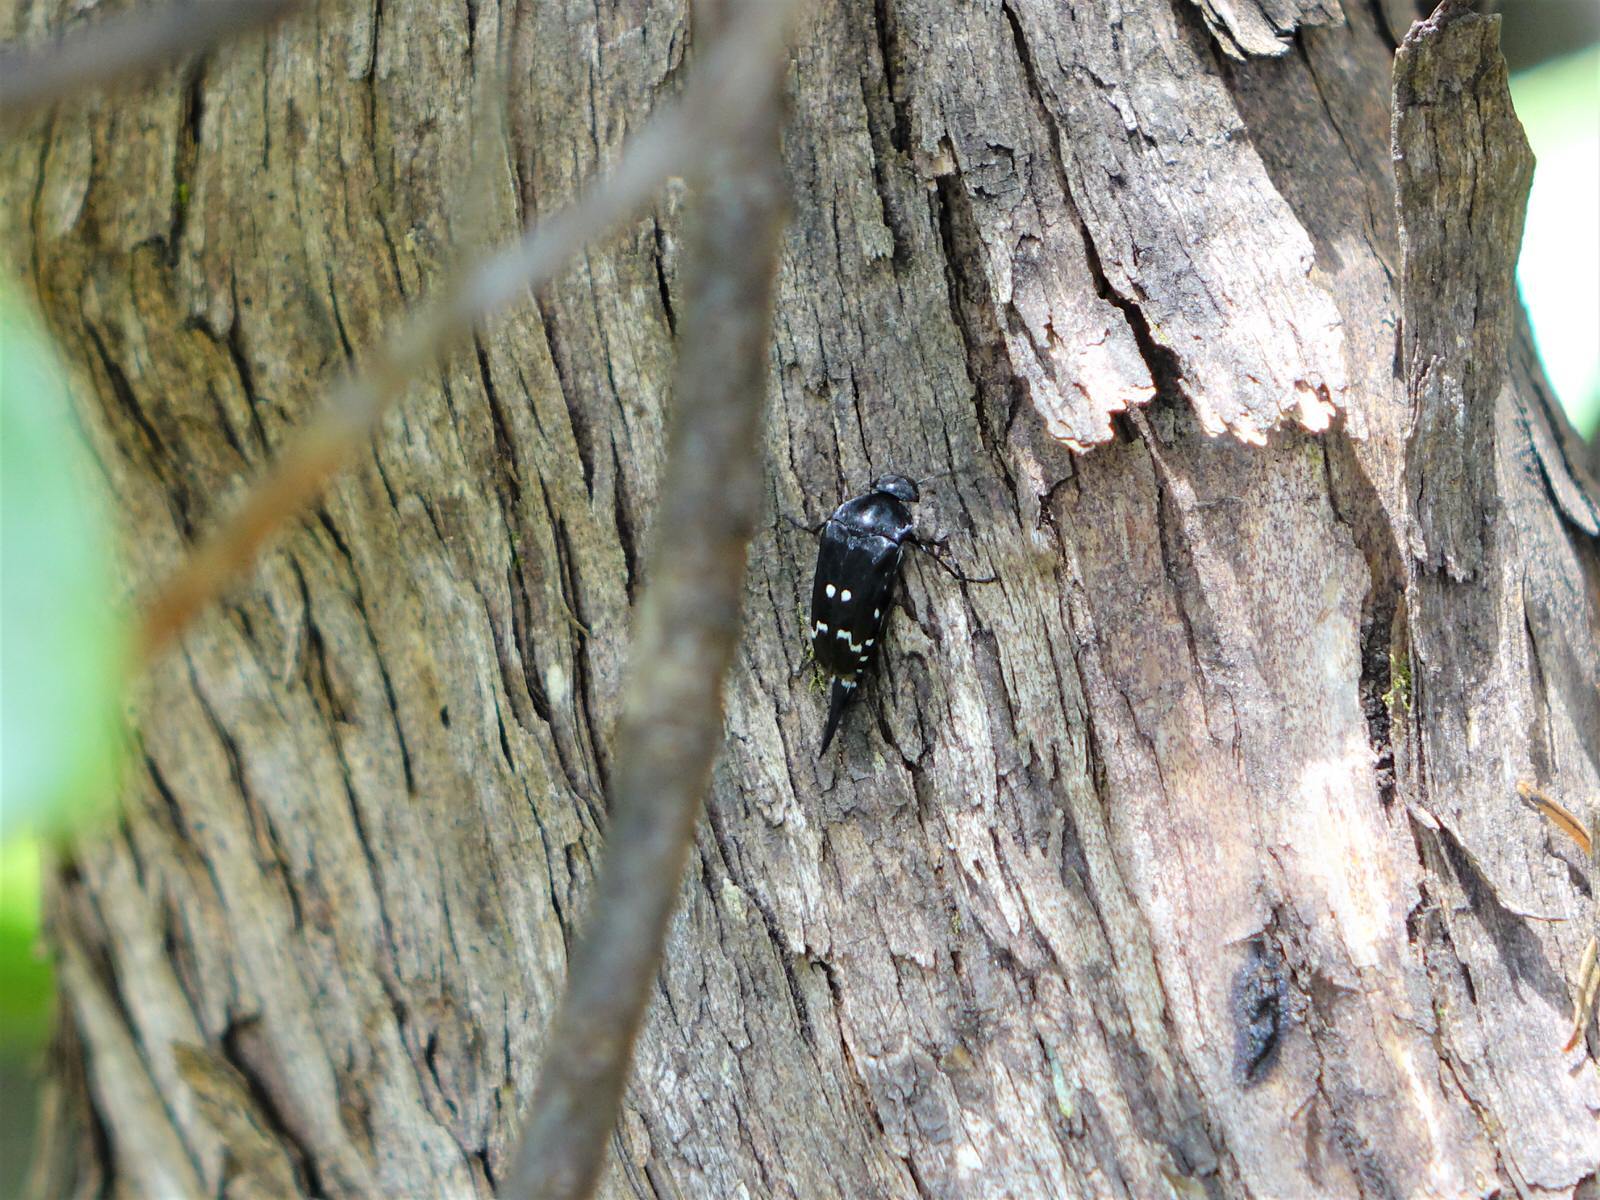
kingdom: Animalia
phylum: Arthropoda
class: Insecta
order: Coleoptera
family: Mordellidae
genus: Hoshihananomia
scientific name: Hoshihananomia
